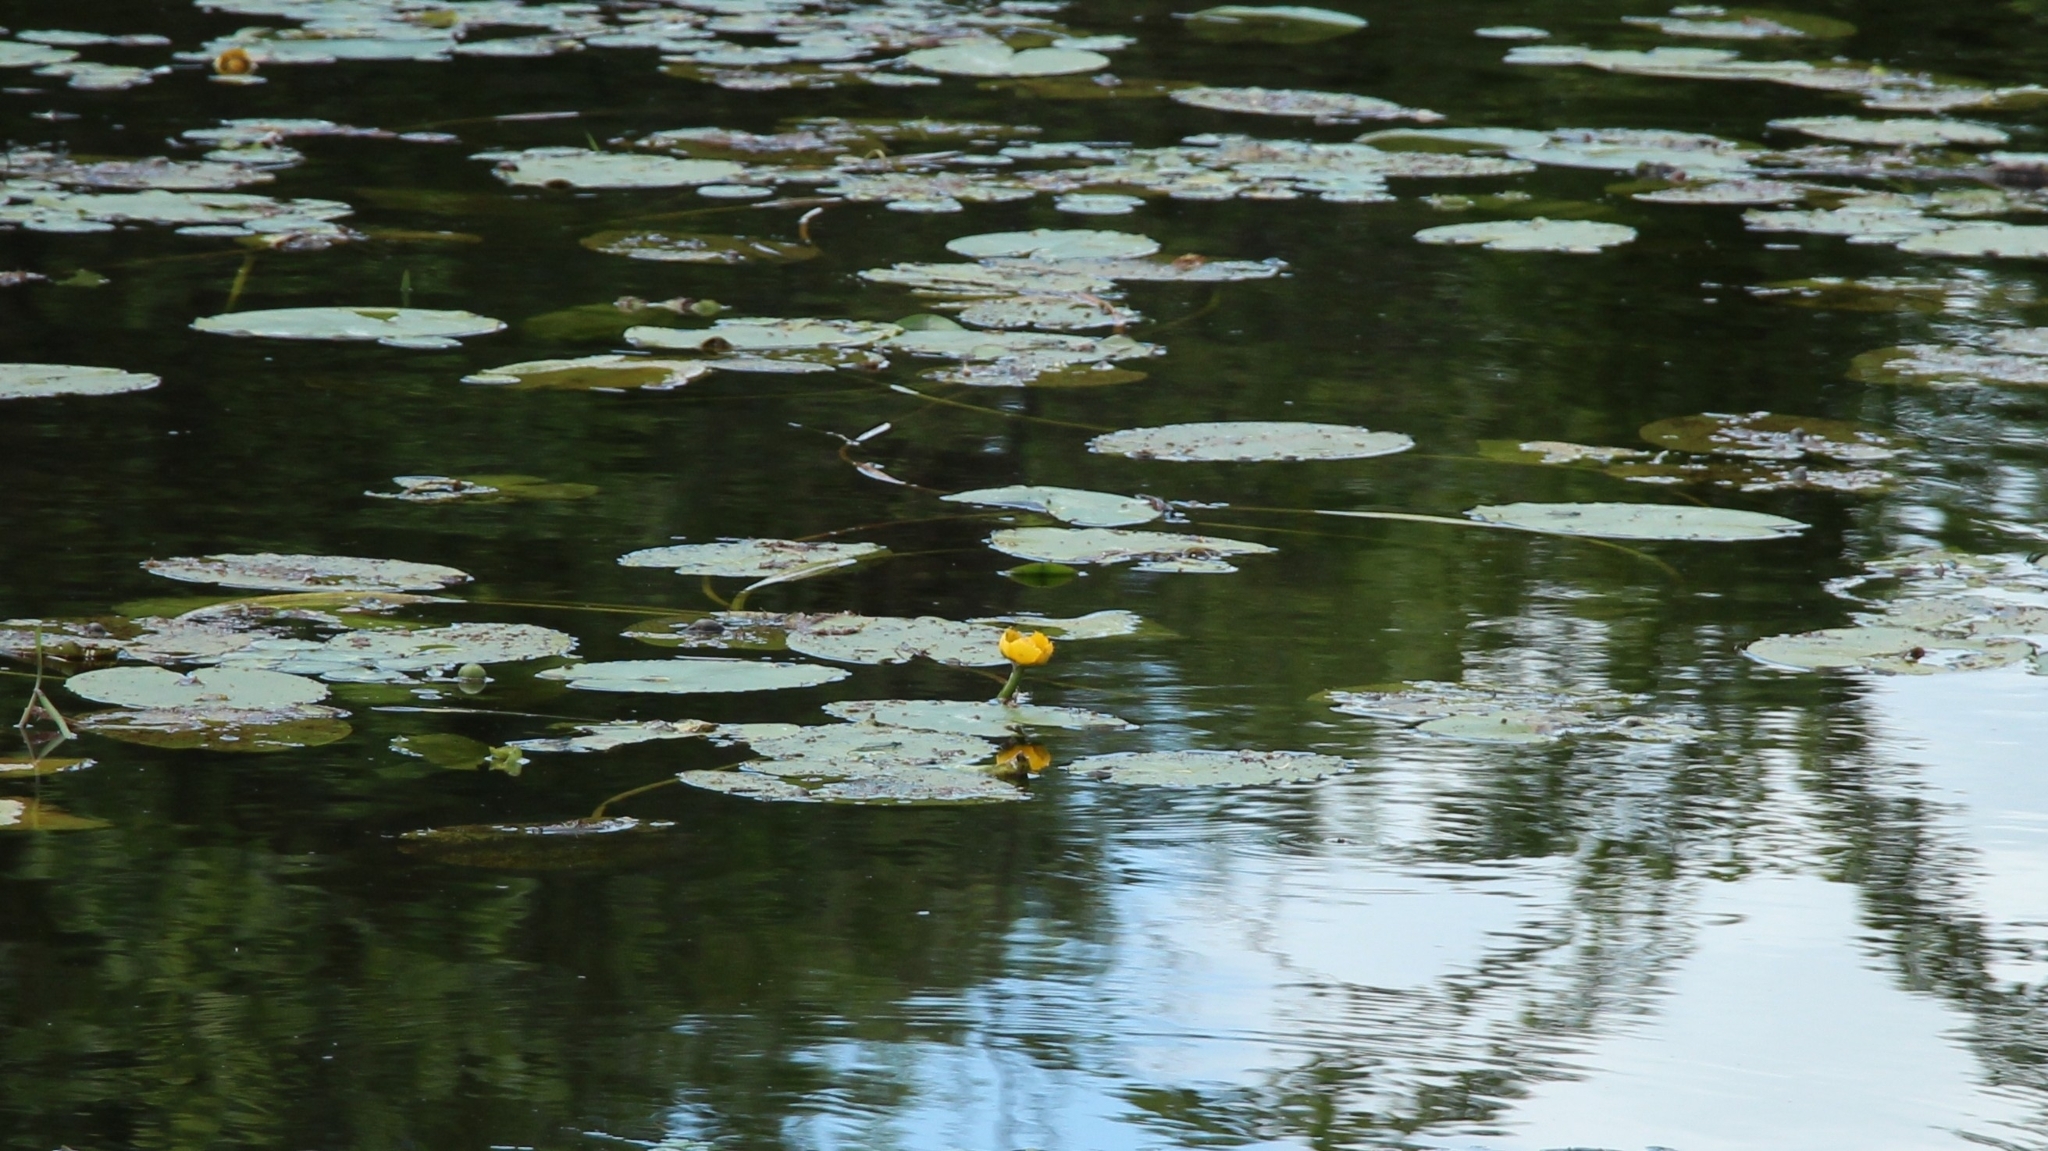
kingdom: Plantae
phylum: Tracheophyta
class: Magnoliopsida
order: Nymphaeales
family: Nymphaeaceae
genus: Nuphar
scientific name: Nuphar lutea
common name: Yellow water-lily
